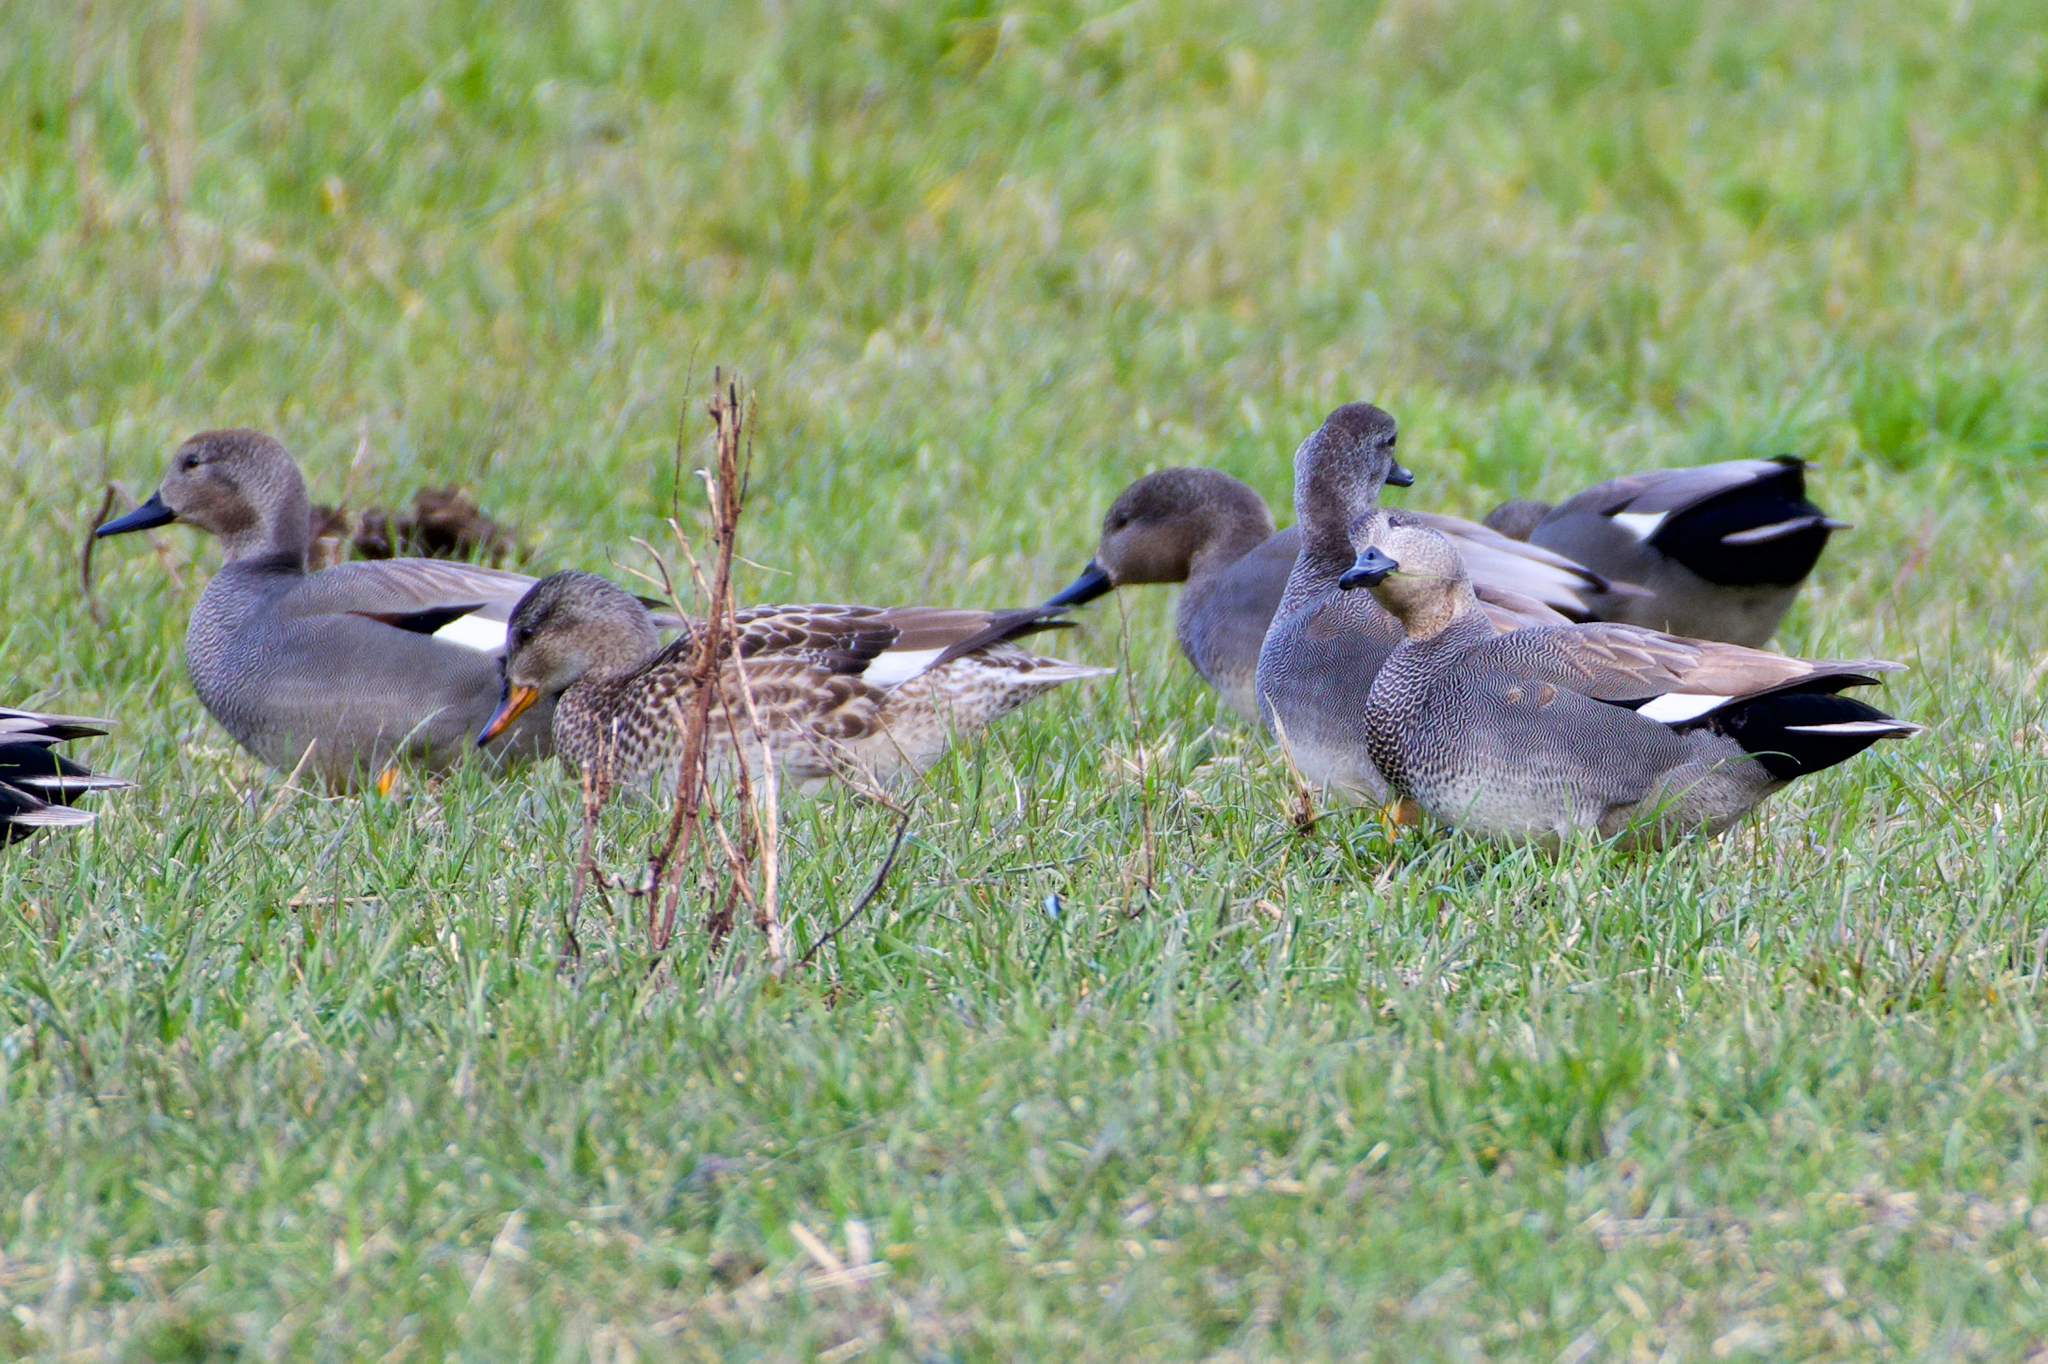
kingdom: Animalia
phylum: Chordata
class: Aves
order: Anseriformes
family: Anatidae
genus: Mareca
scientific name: Mareca strepera
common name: Gadwall
